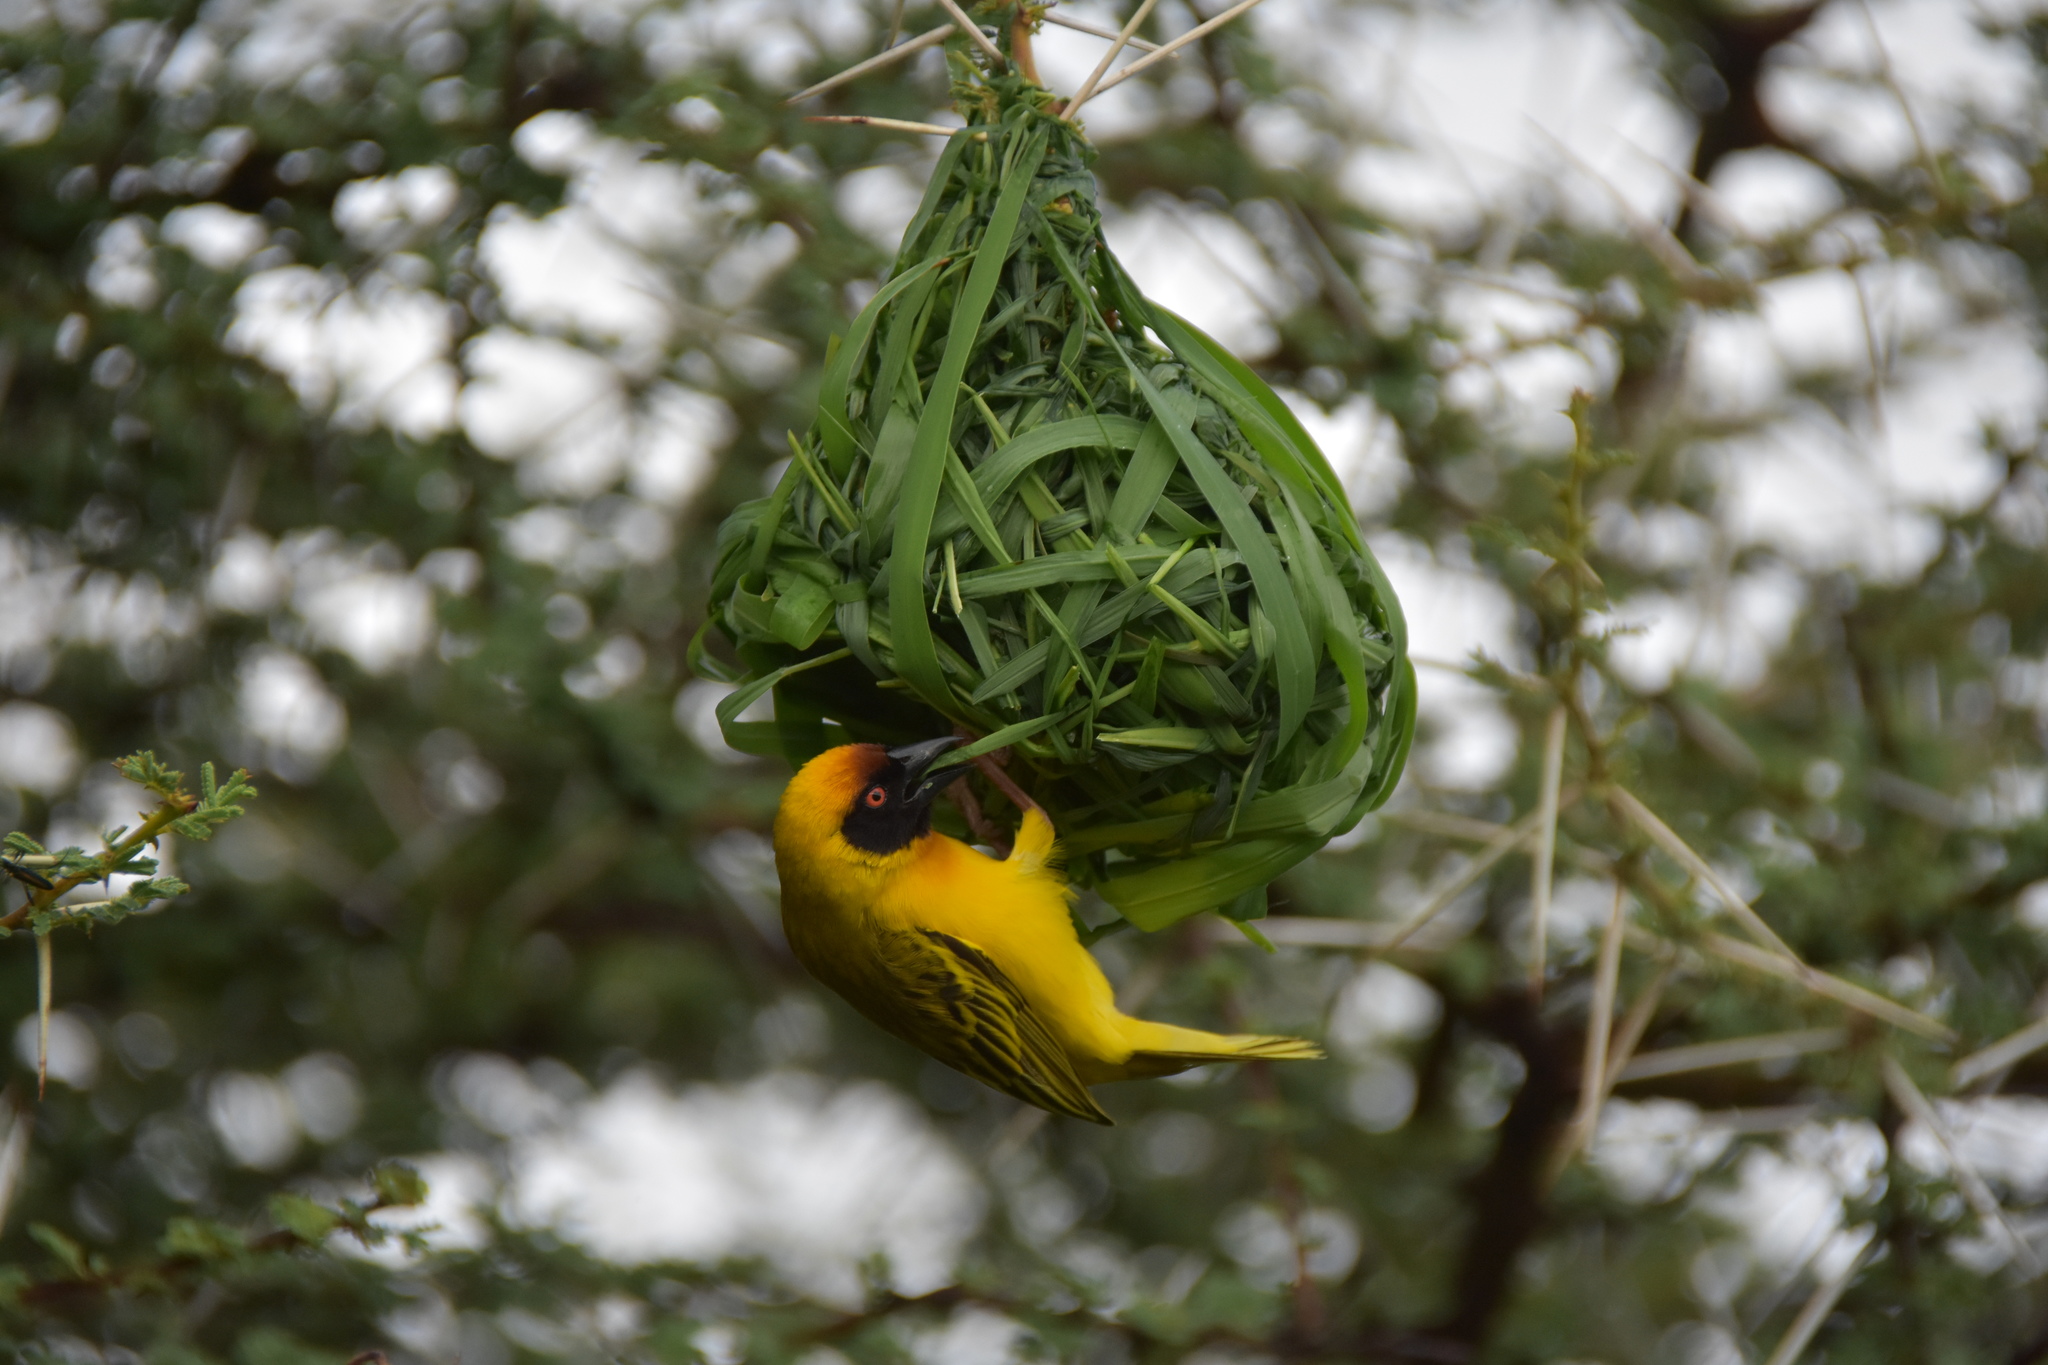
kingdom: Animalia
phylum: Chordata
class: Aves
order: Passeriformes
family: Ploceidae
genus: Ploceus
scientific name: Ploceus vitellinus
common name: Vitelline masked weaver
